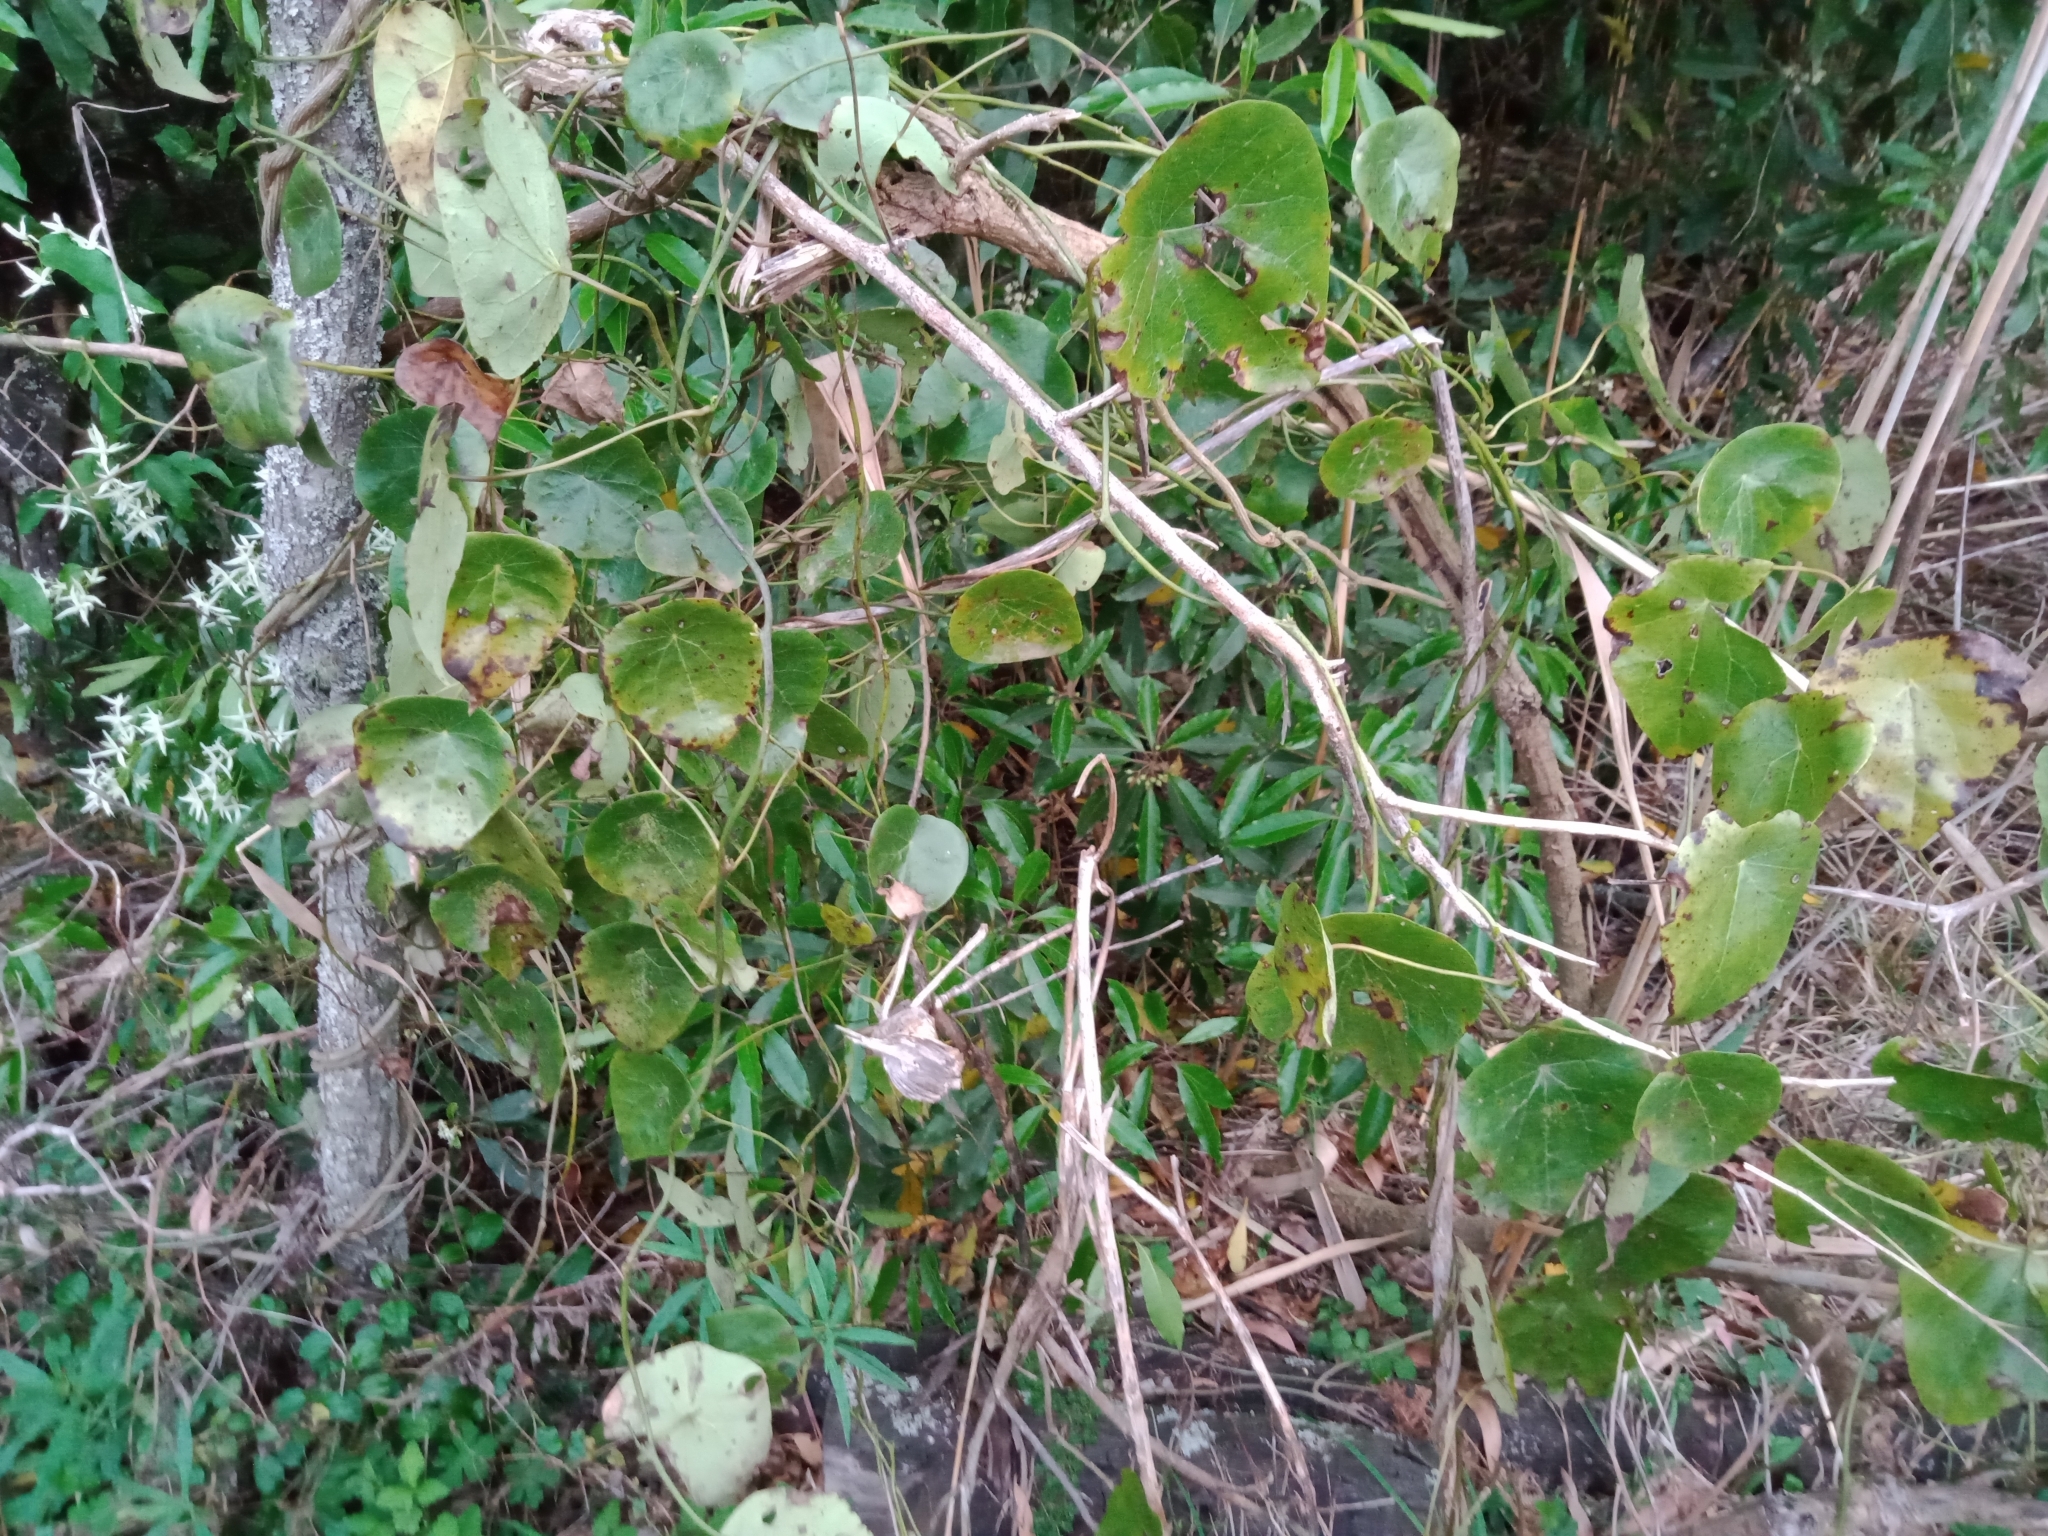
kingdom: Plantae
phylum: Tracheophyta
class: Magnoliopsida
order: Ranunculales
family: Menispermaceae
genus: Stephania
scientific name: Stephania japonica
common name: Snake vine
